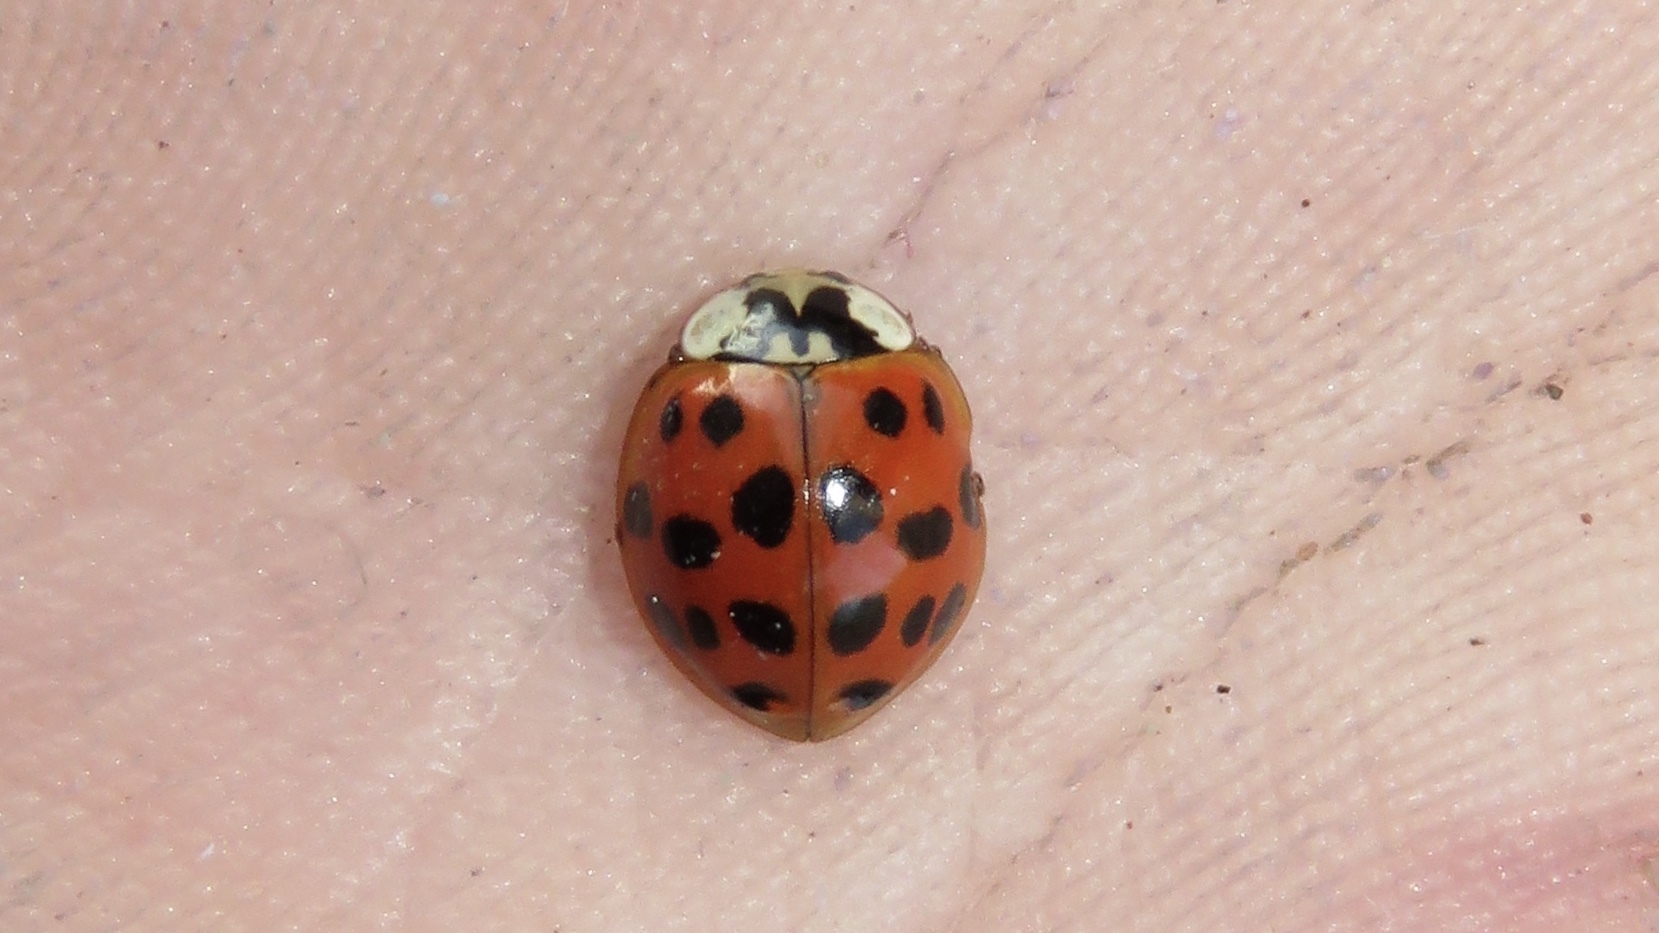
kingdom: Animalia
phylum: Arthropoda
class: Insecta
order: Coleoptera
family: Coccinellidae
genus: Harmonia
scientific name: Harmonia axyridis
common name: Harlequin ladybird
